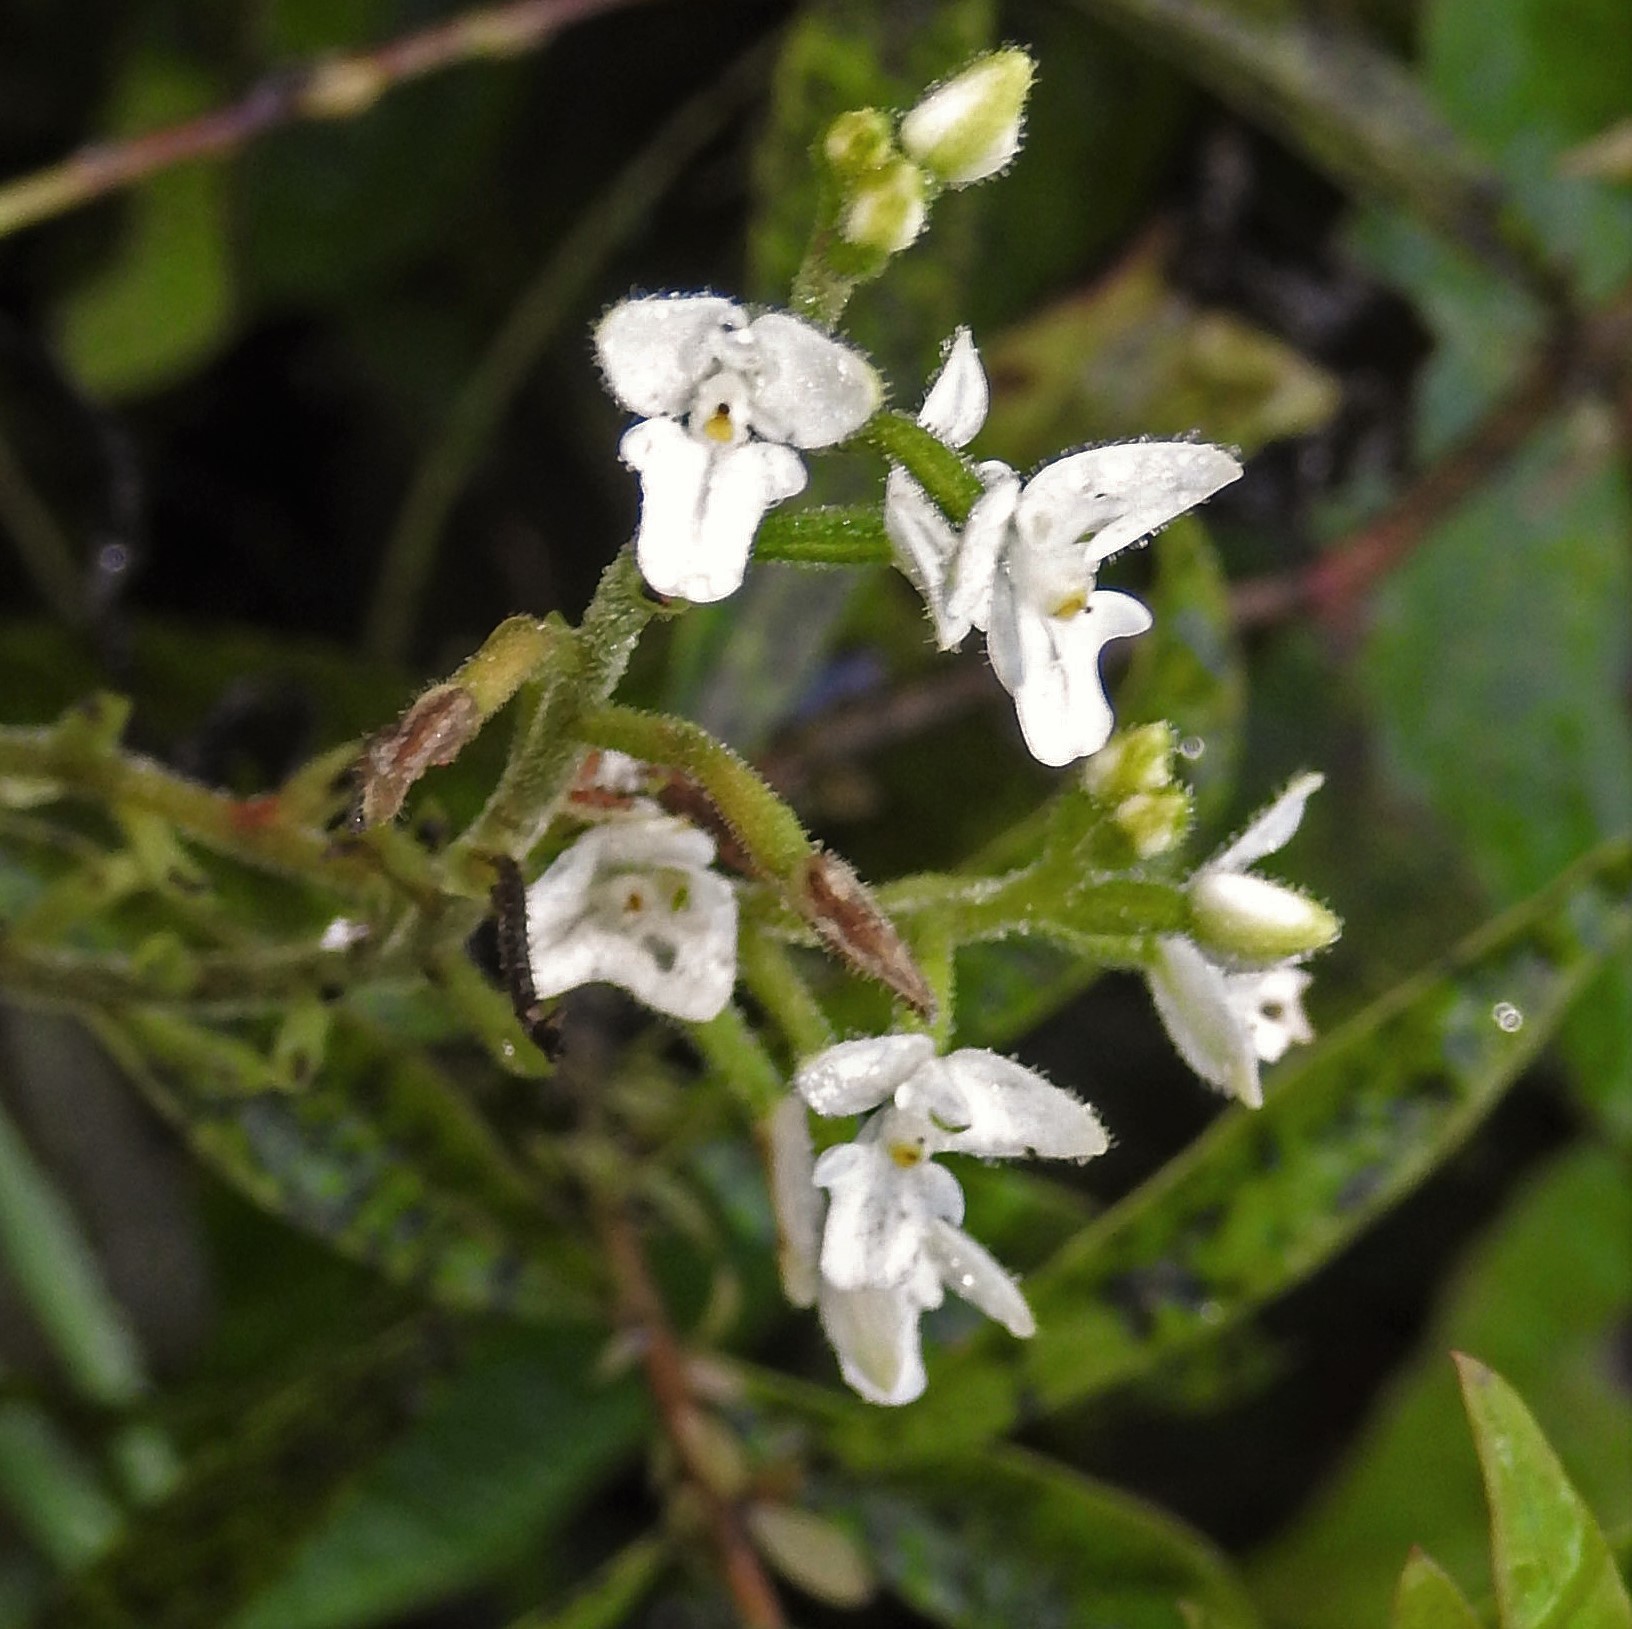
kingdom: Plantae
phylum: Tracheophyta
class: Liliopsida
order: Asparagales
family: Orchidaceae
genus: Ponthieva
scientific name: Ponthieva mandonii
